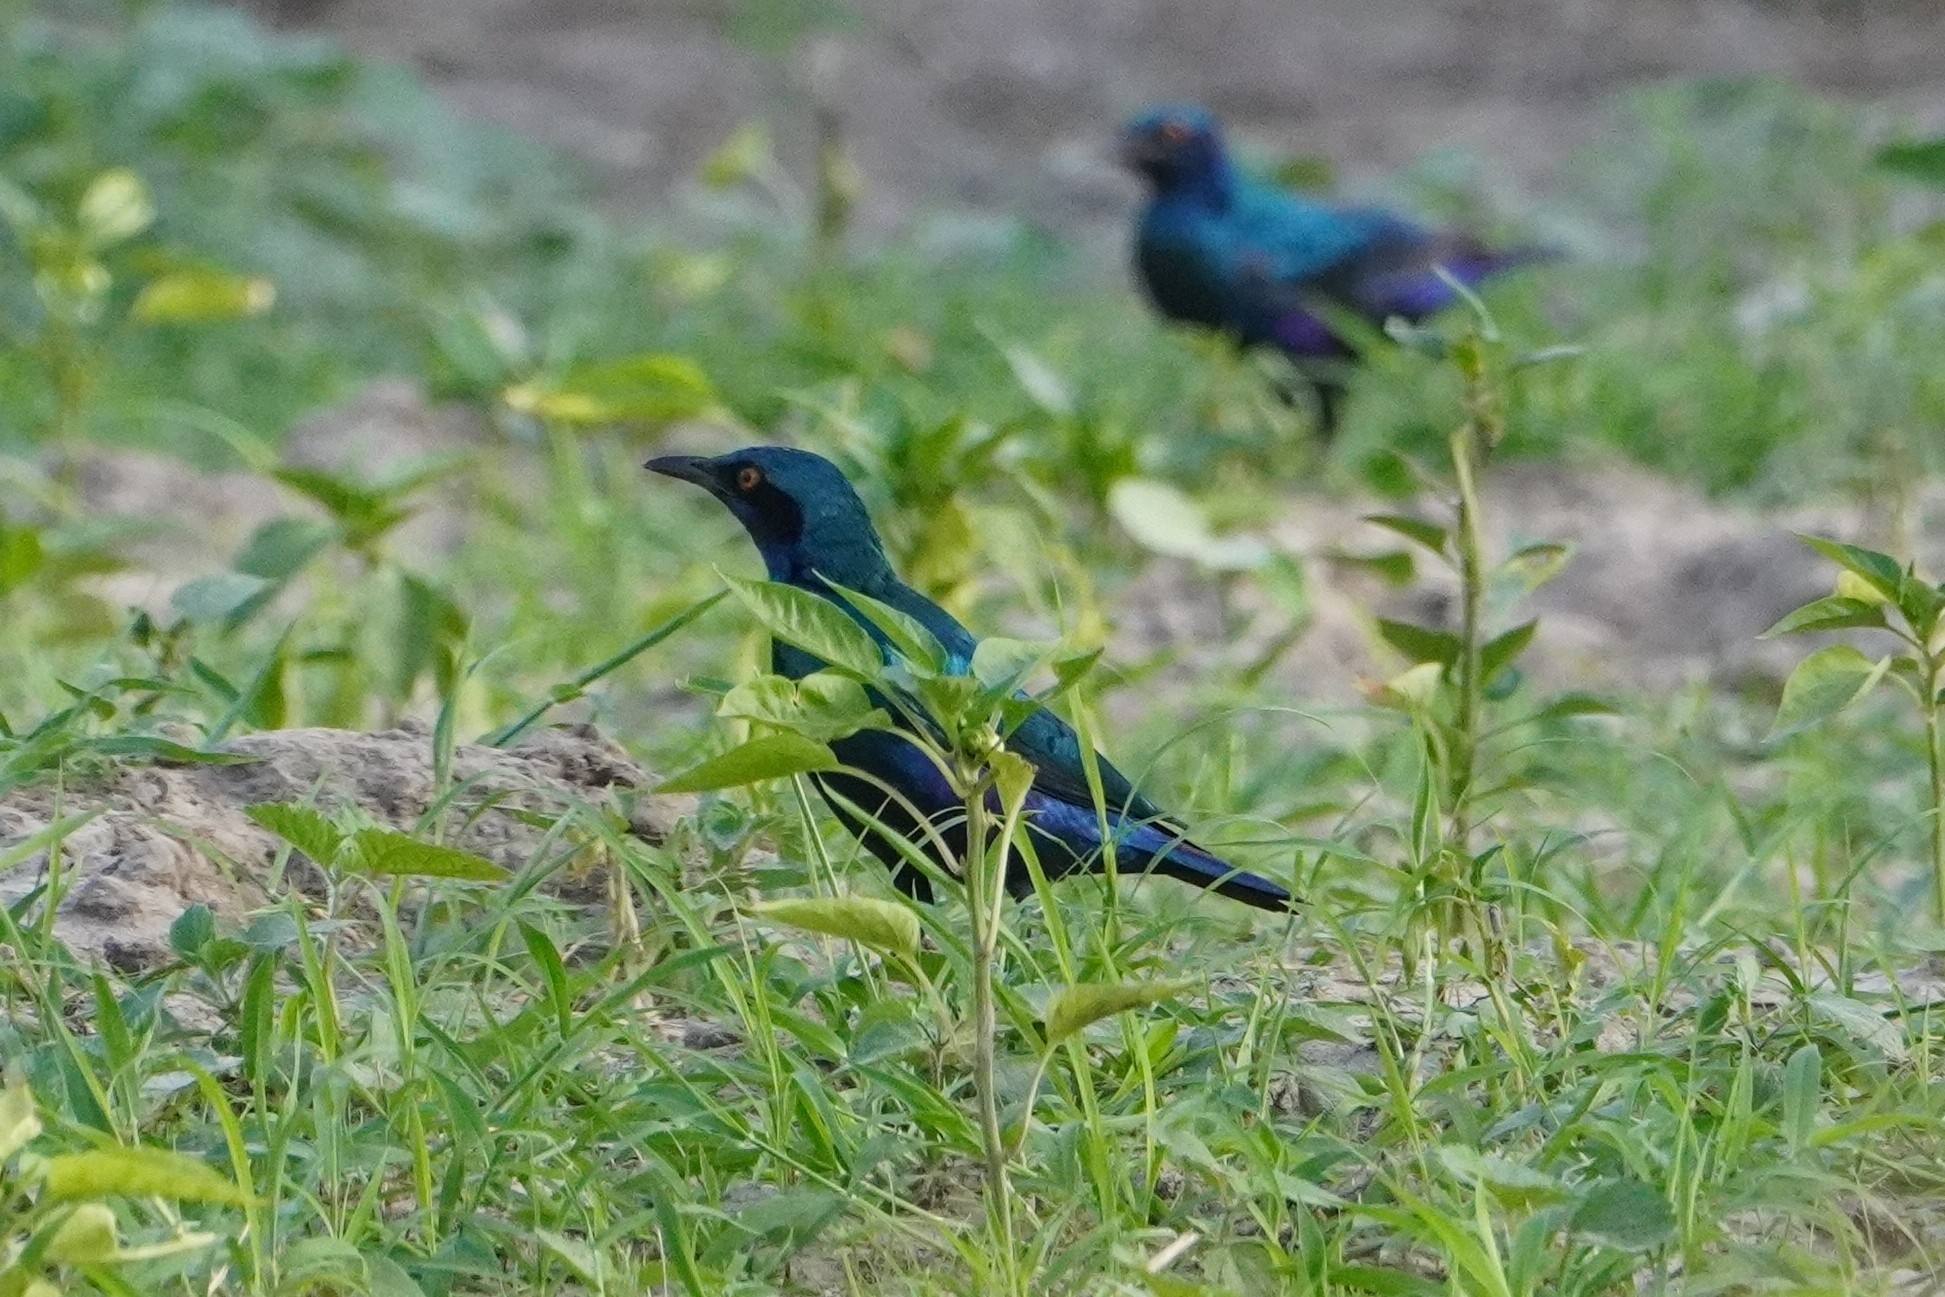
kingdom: Animalia
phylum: Chordata
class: Aves
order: Passeriformes
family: Sturnidae
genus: Lamprotornis
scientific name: Lamprotornis chalybaeus
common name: Greater blue-eared starling
